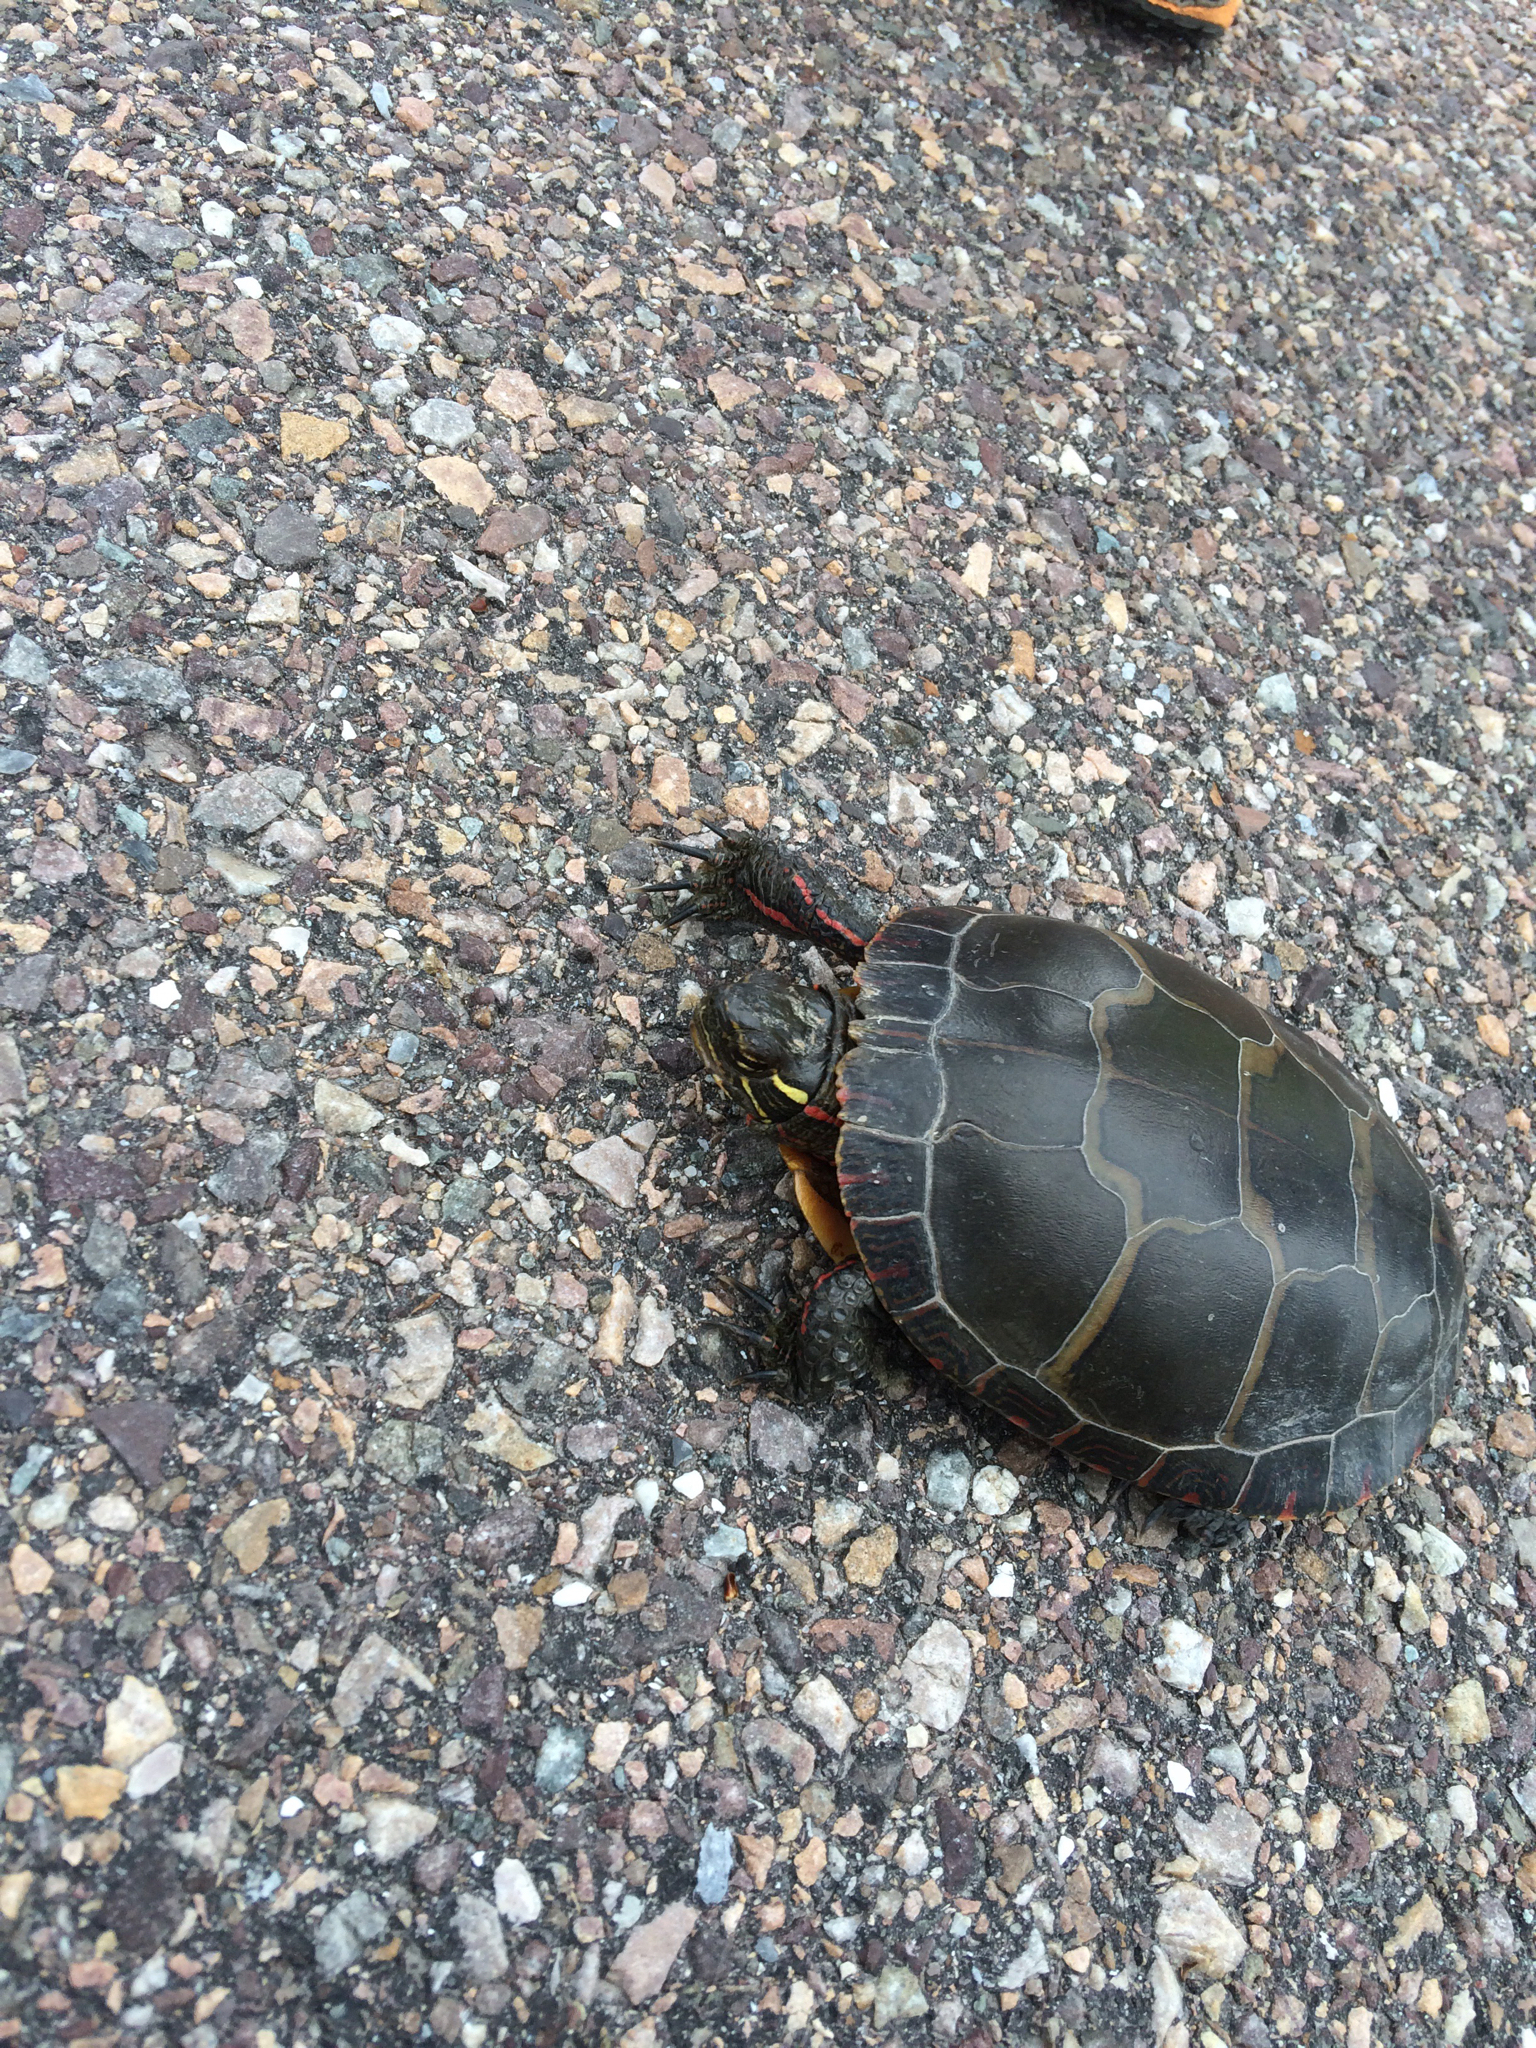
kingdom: Animalia
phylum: Chordata
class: Testudines
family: Emydidae
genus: Chrysemys
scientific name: Chrysemys picta
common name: Painted turtle
